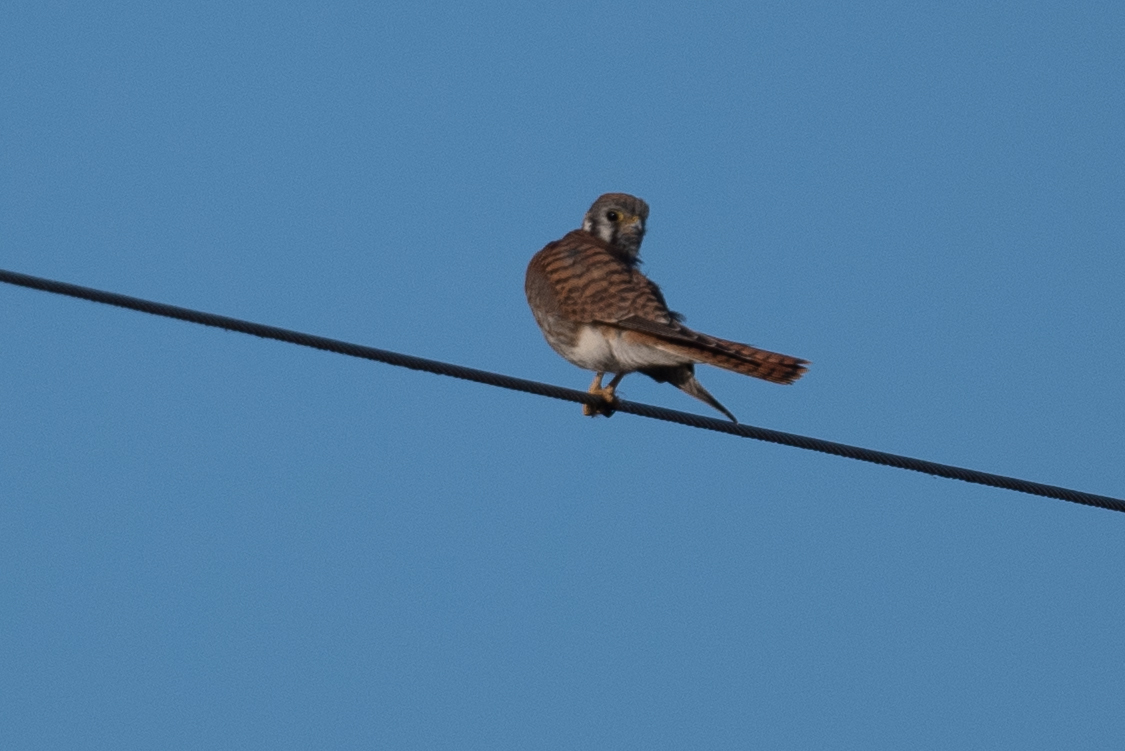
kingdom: Animalia
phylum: Chordata
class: Aves
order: Falconiformes
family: Falconidae
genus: Falco
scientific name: Falco sparverius
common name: American kestrel
